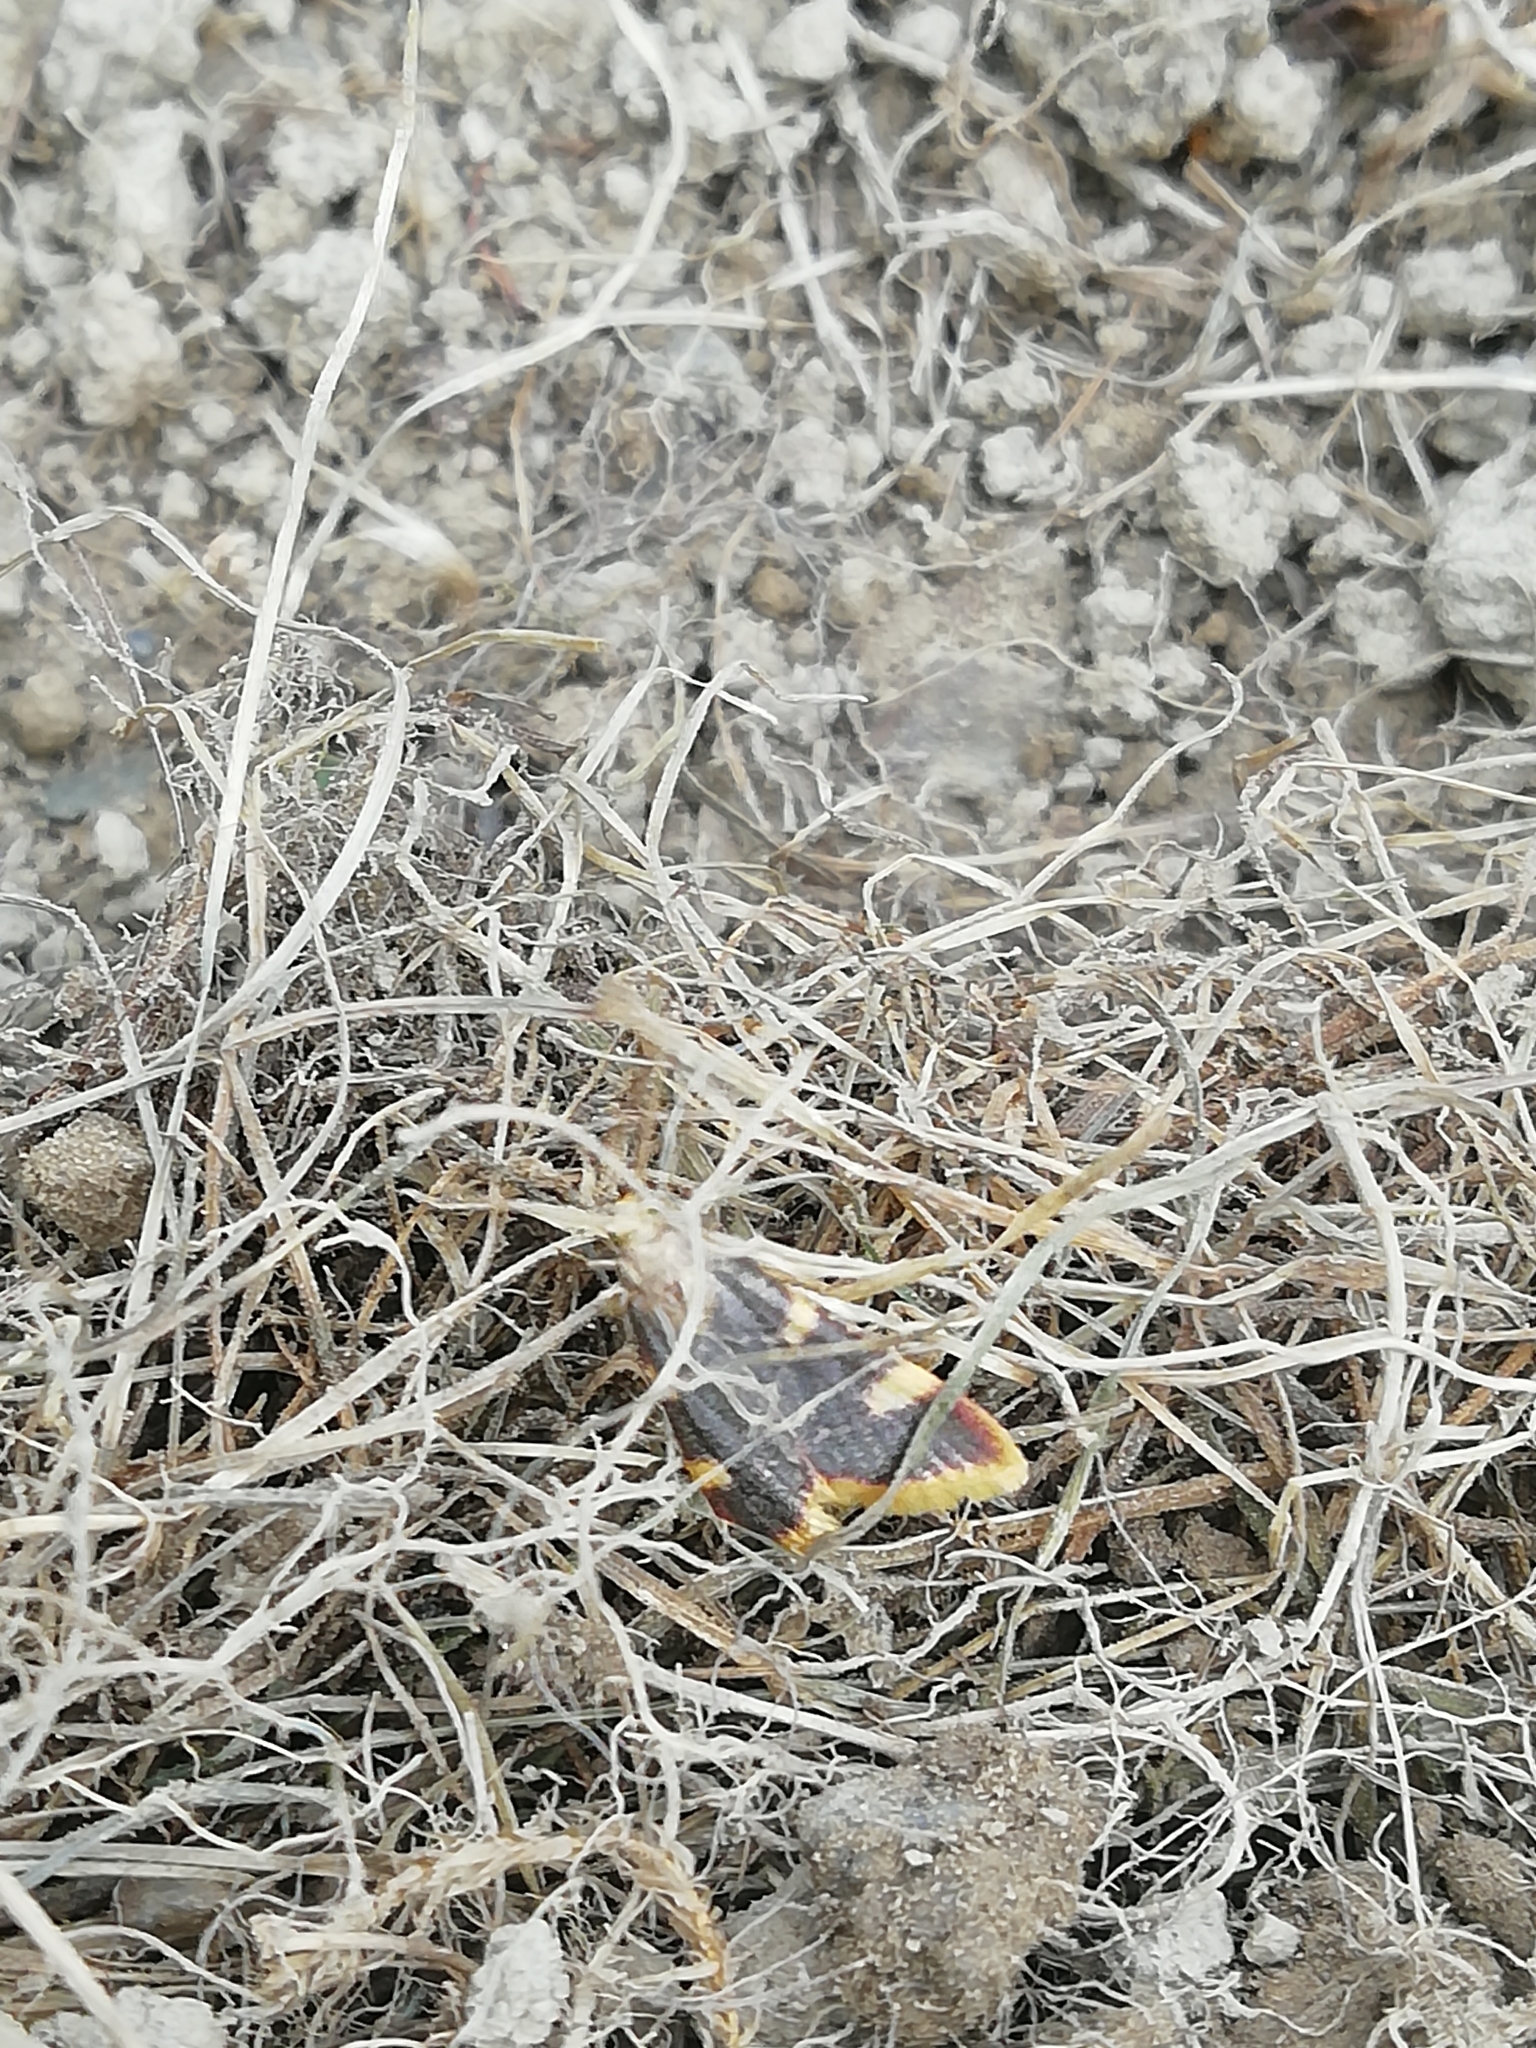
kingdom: Animalia
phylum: Arthropoda
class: Insecta
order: Lepidoptera
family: Pyralidae
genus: Hypsopygia
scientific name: Hypsopygia costalis
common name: Gold triangle
